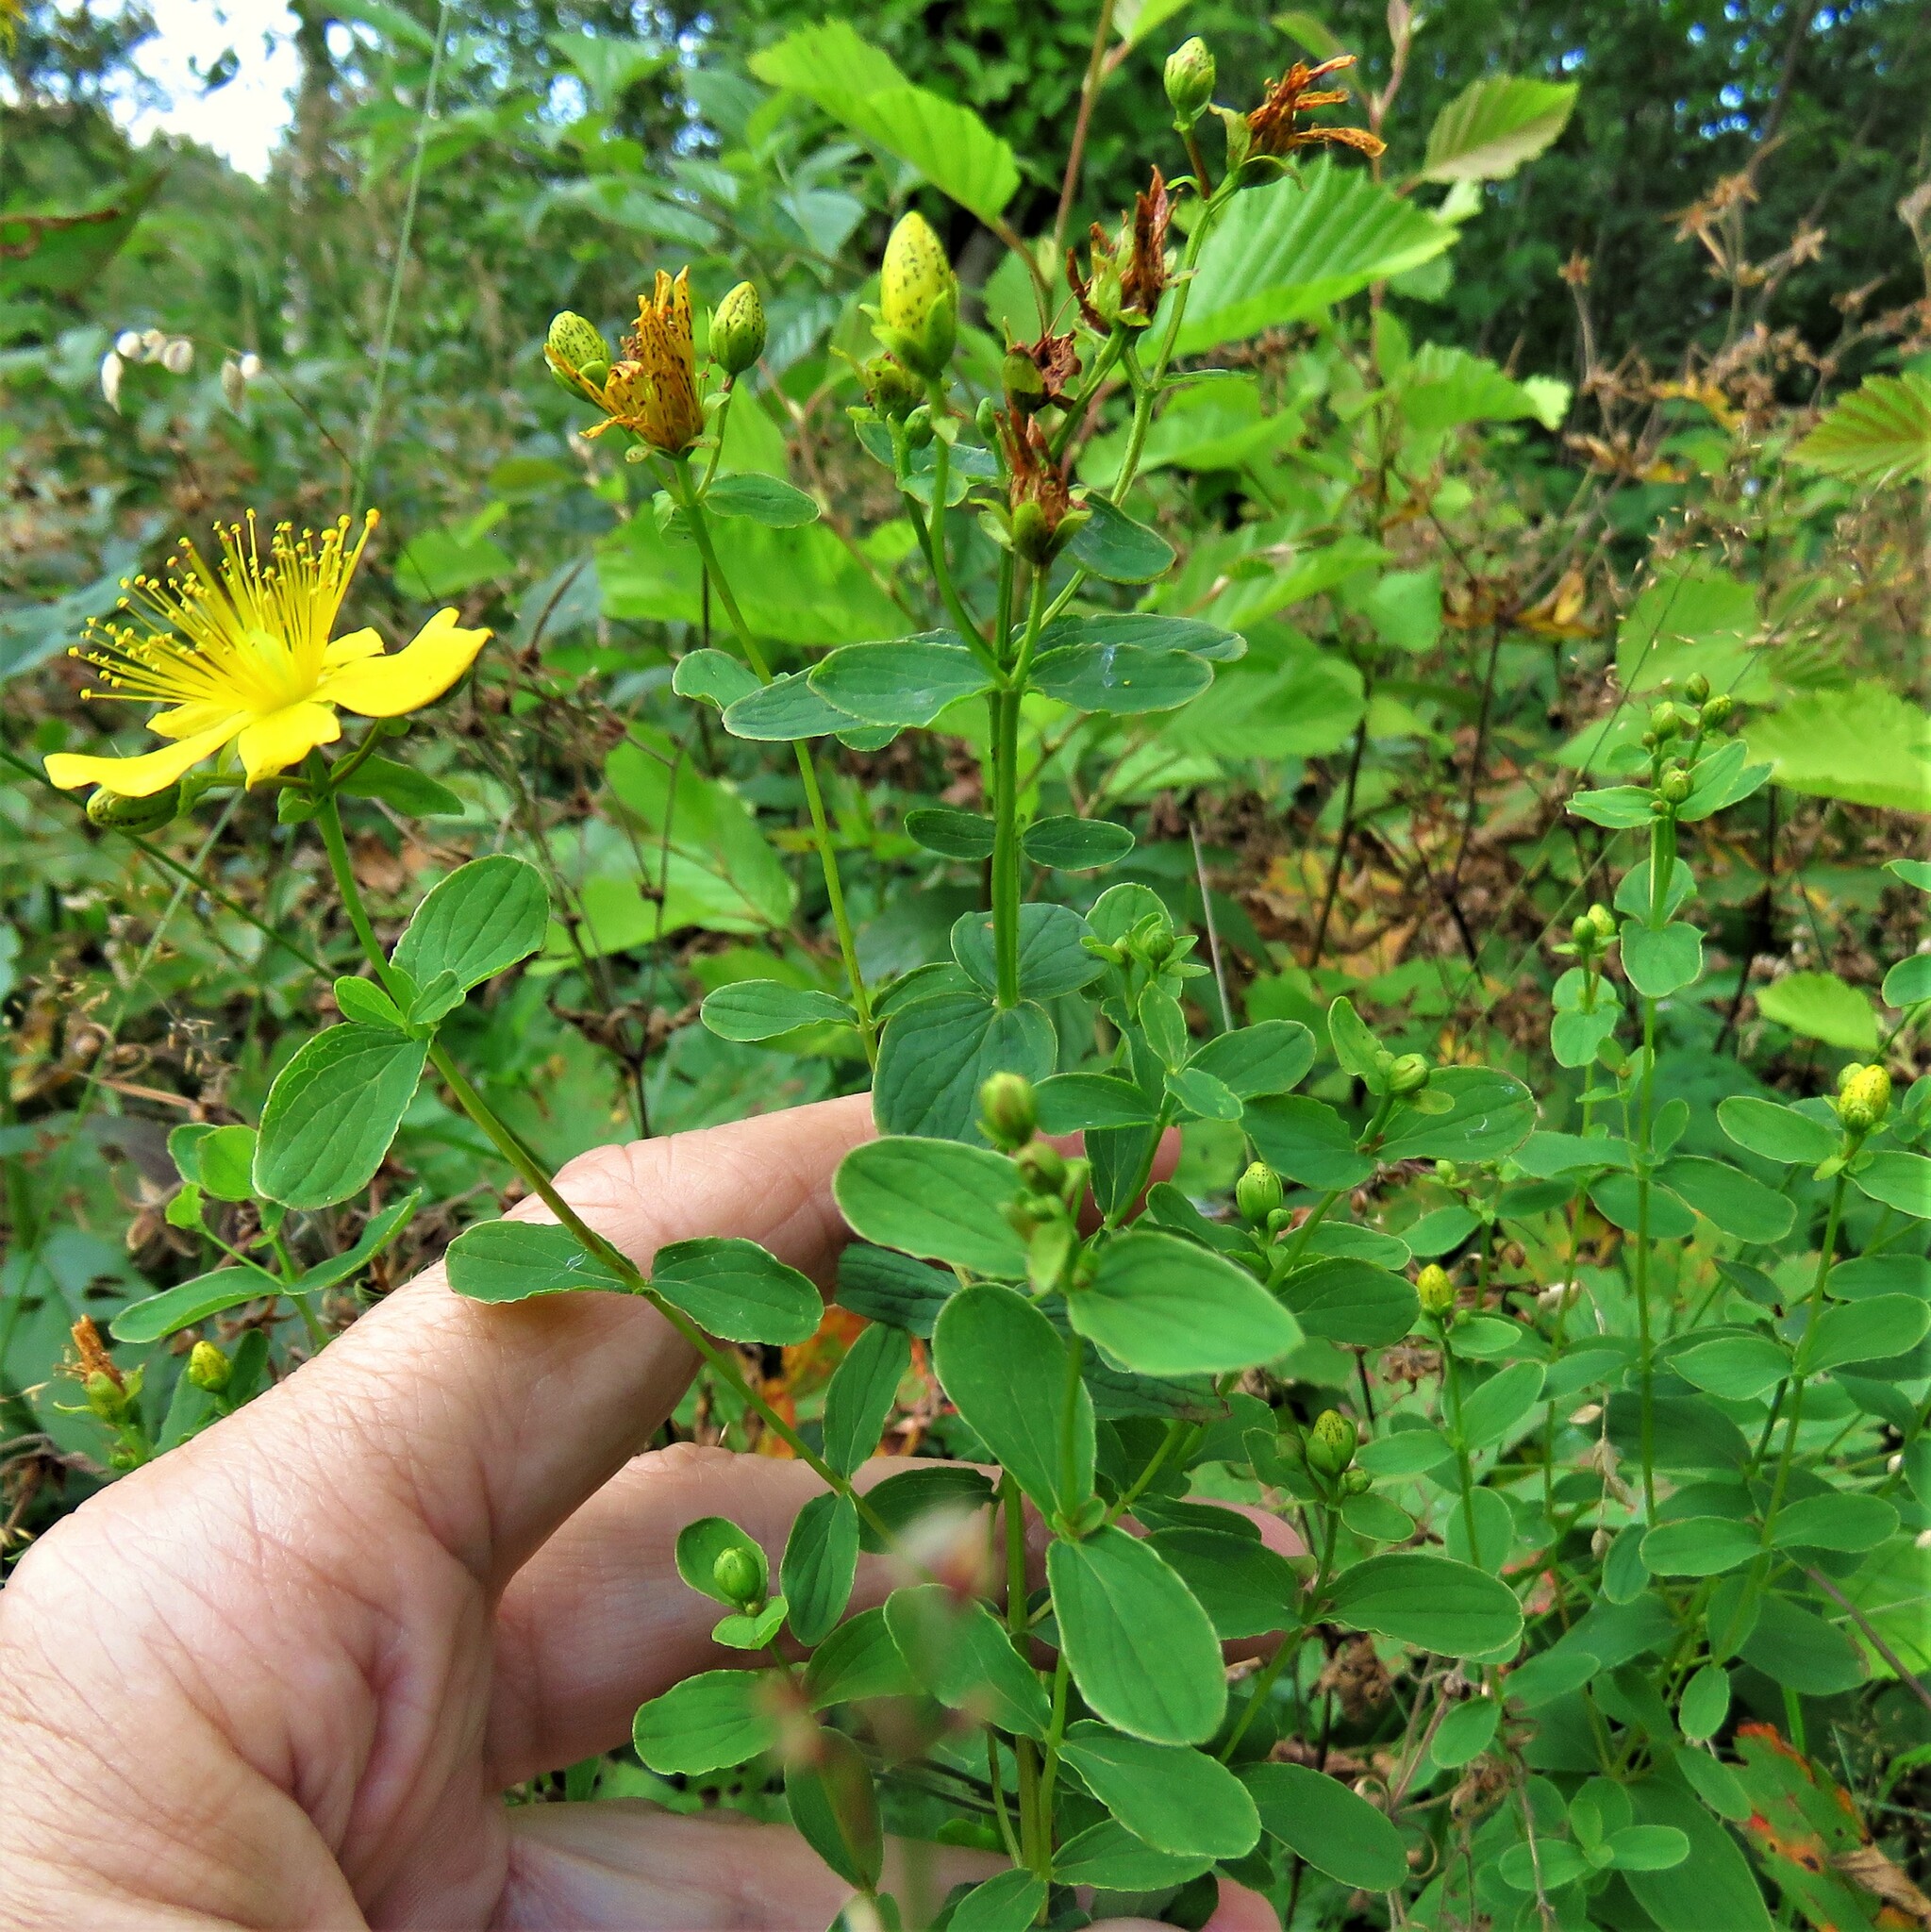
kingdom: Plantae
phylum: Tracheophyta
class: Magnoliopsida
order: Malpighiales
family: Hypericaceae
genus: Hypericum
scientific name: Hypericum maculatum
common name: Imperforate st. john's-wort
